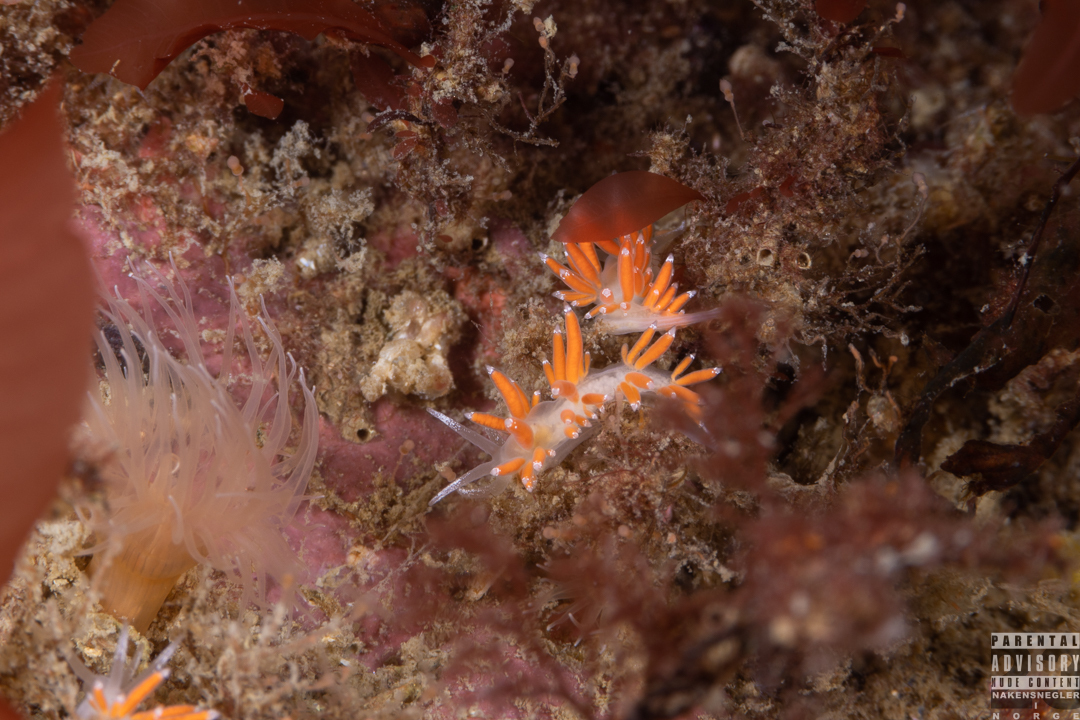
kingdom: Animalia
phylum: Mollusca
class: Gastropoda
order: Nudibranchia
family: Coryphellidae
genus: Coryphella
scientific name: Coryphella gracilis
